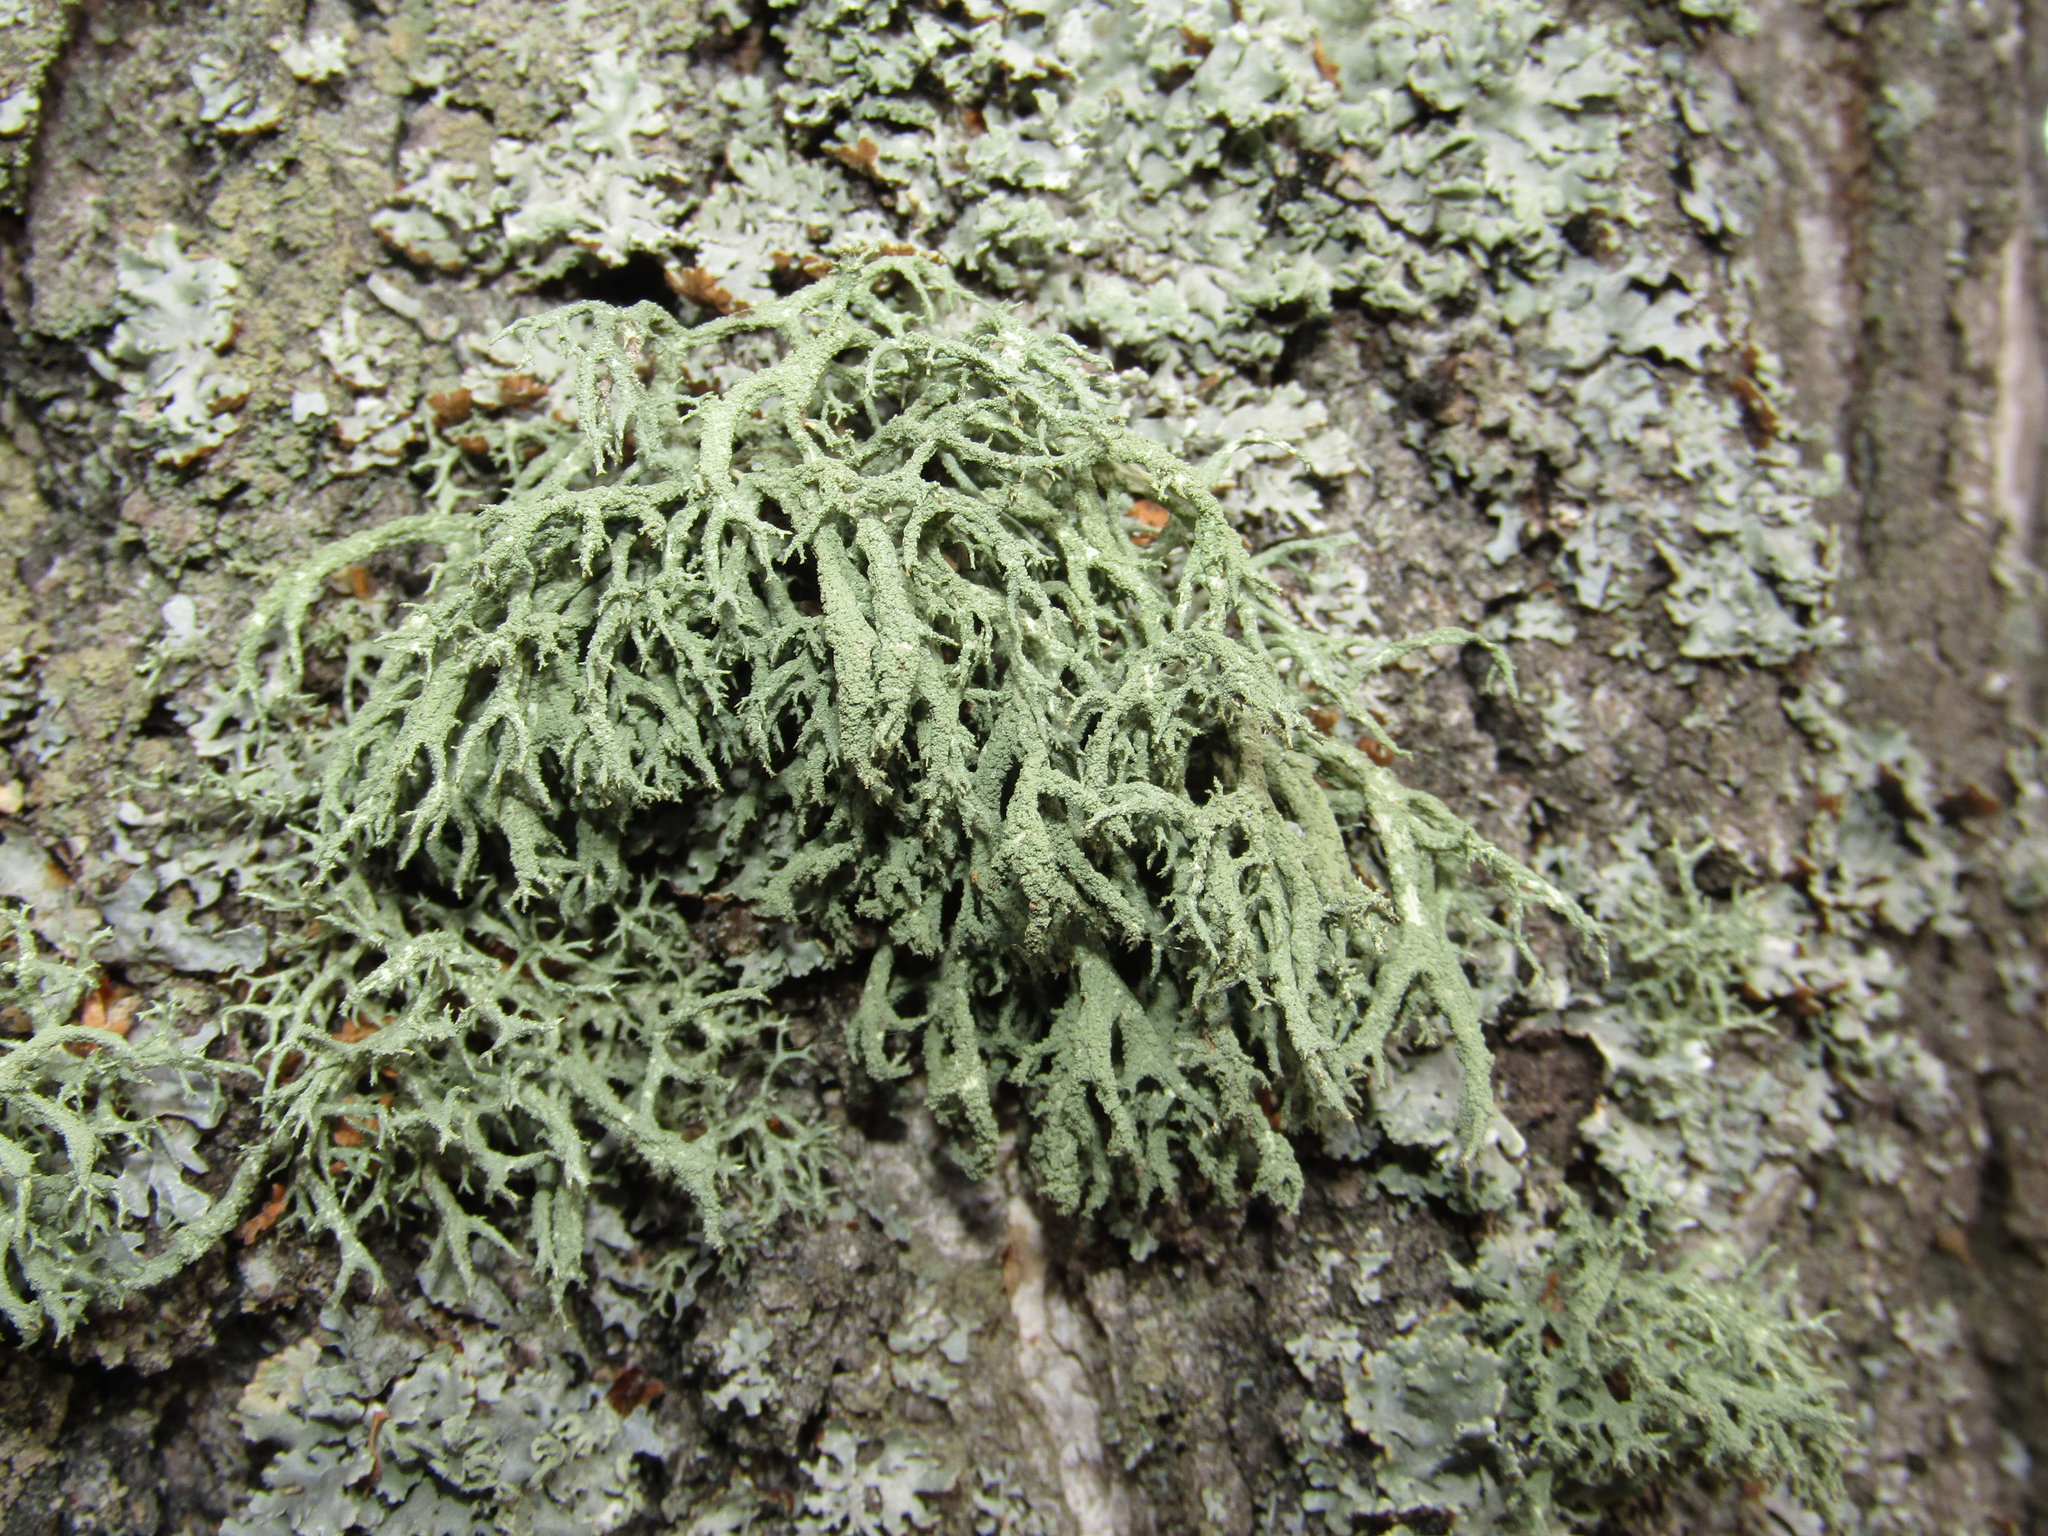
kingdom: Fungi
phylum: Ascomycota
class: Lecanoromycetes
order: Lecanorales
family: Parmeliaceae
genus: Evernia
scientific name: Evernia mesomorpha
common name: Boreal oak moss lichen
